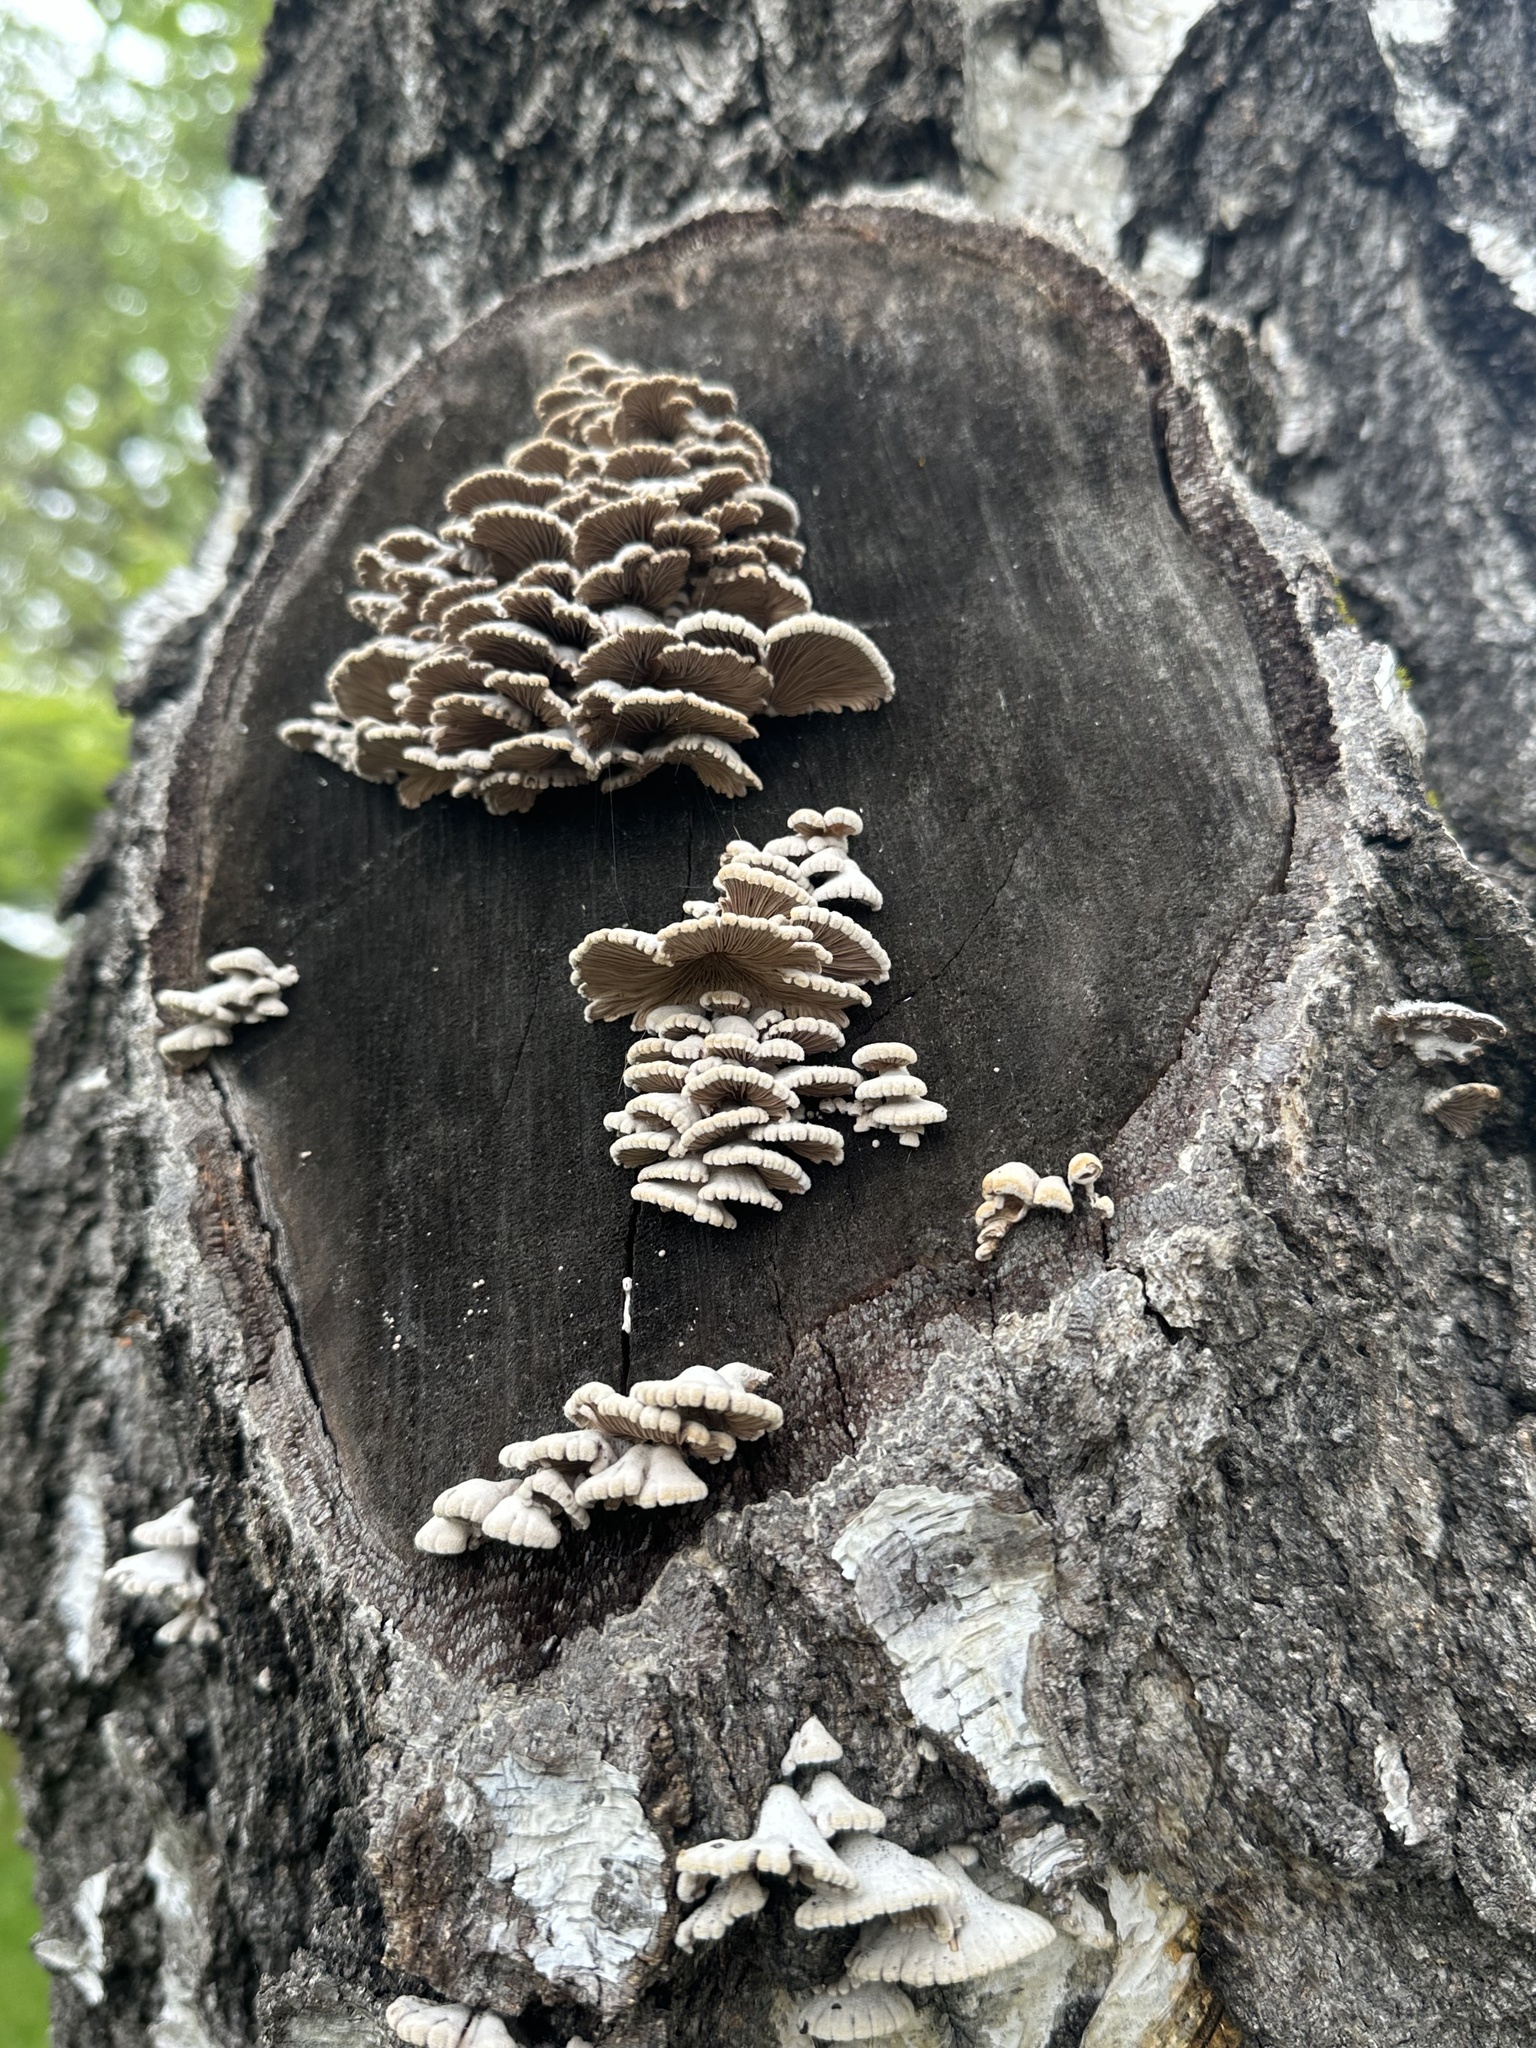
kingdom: Fungi
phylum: Basidiomycota
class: Agaricomycetes
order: Agaricales
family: Schizophyllaceae
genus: Schizophyllum
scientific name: Schizophyllum commune
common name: Common porecrust
